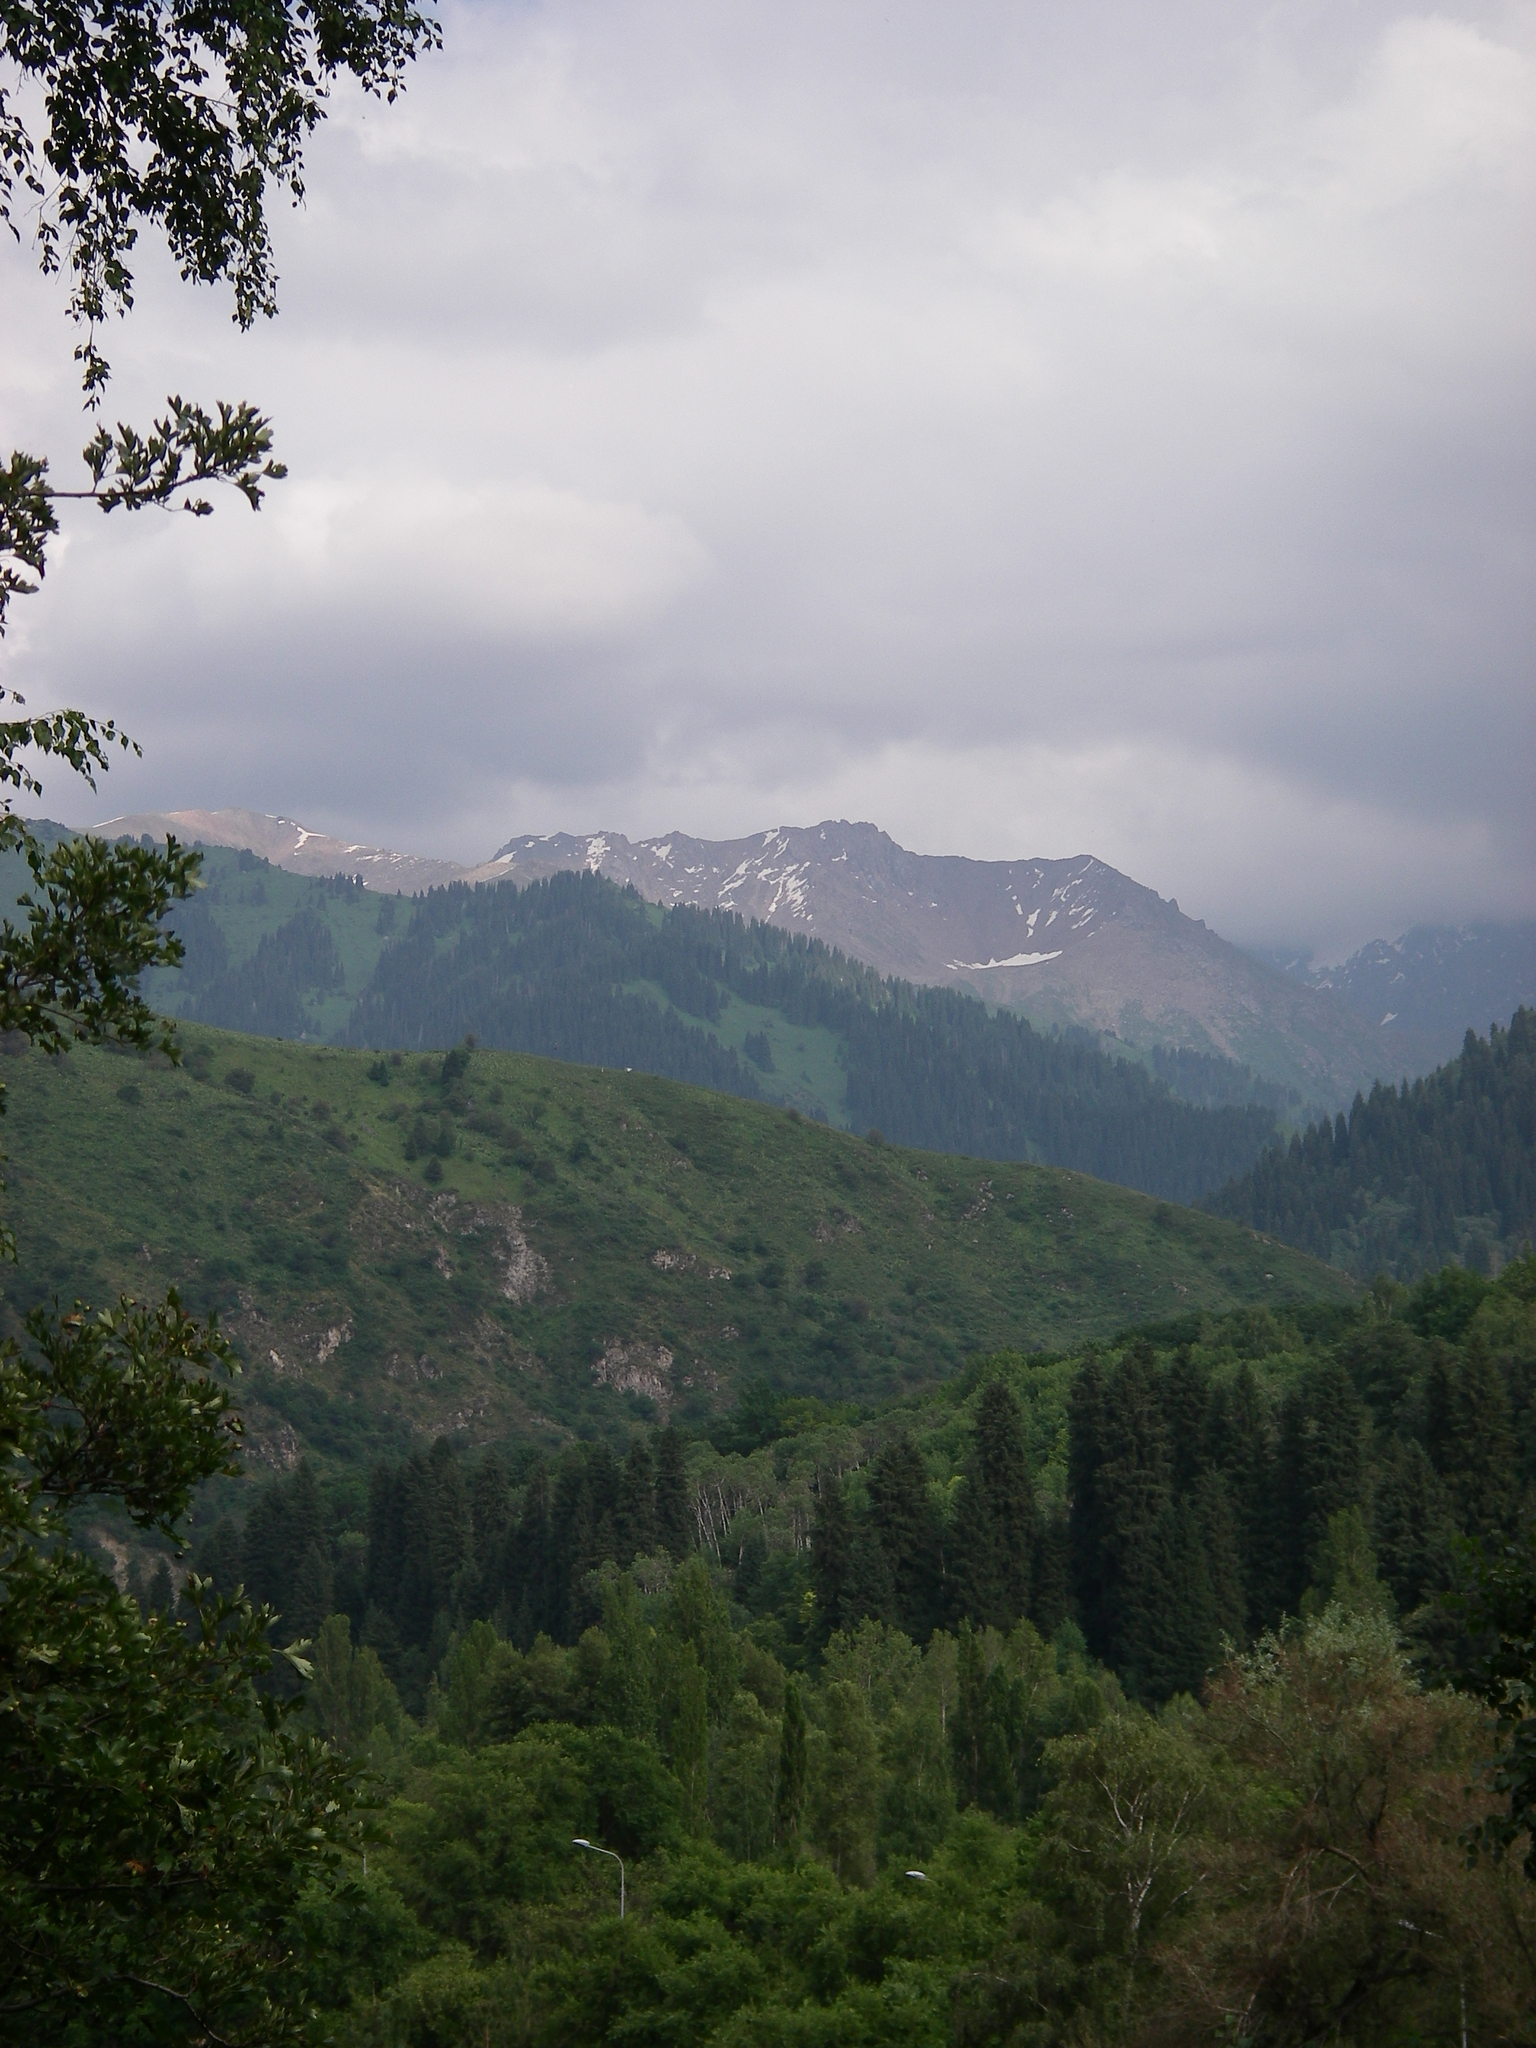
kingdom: Plantae
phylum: Tracheophyta
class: Pinopsida
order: Pinales
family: Pinaceae
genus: Picea
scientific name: Picea schrenkiana
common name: Asian spruce
